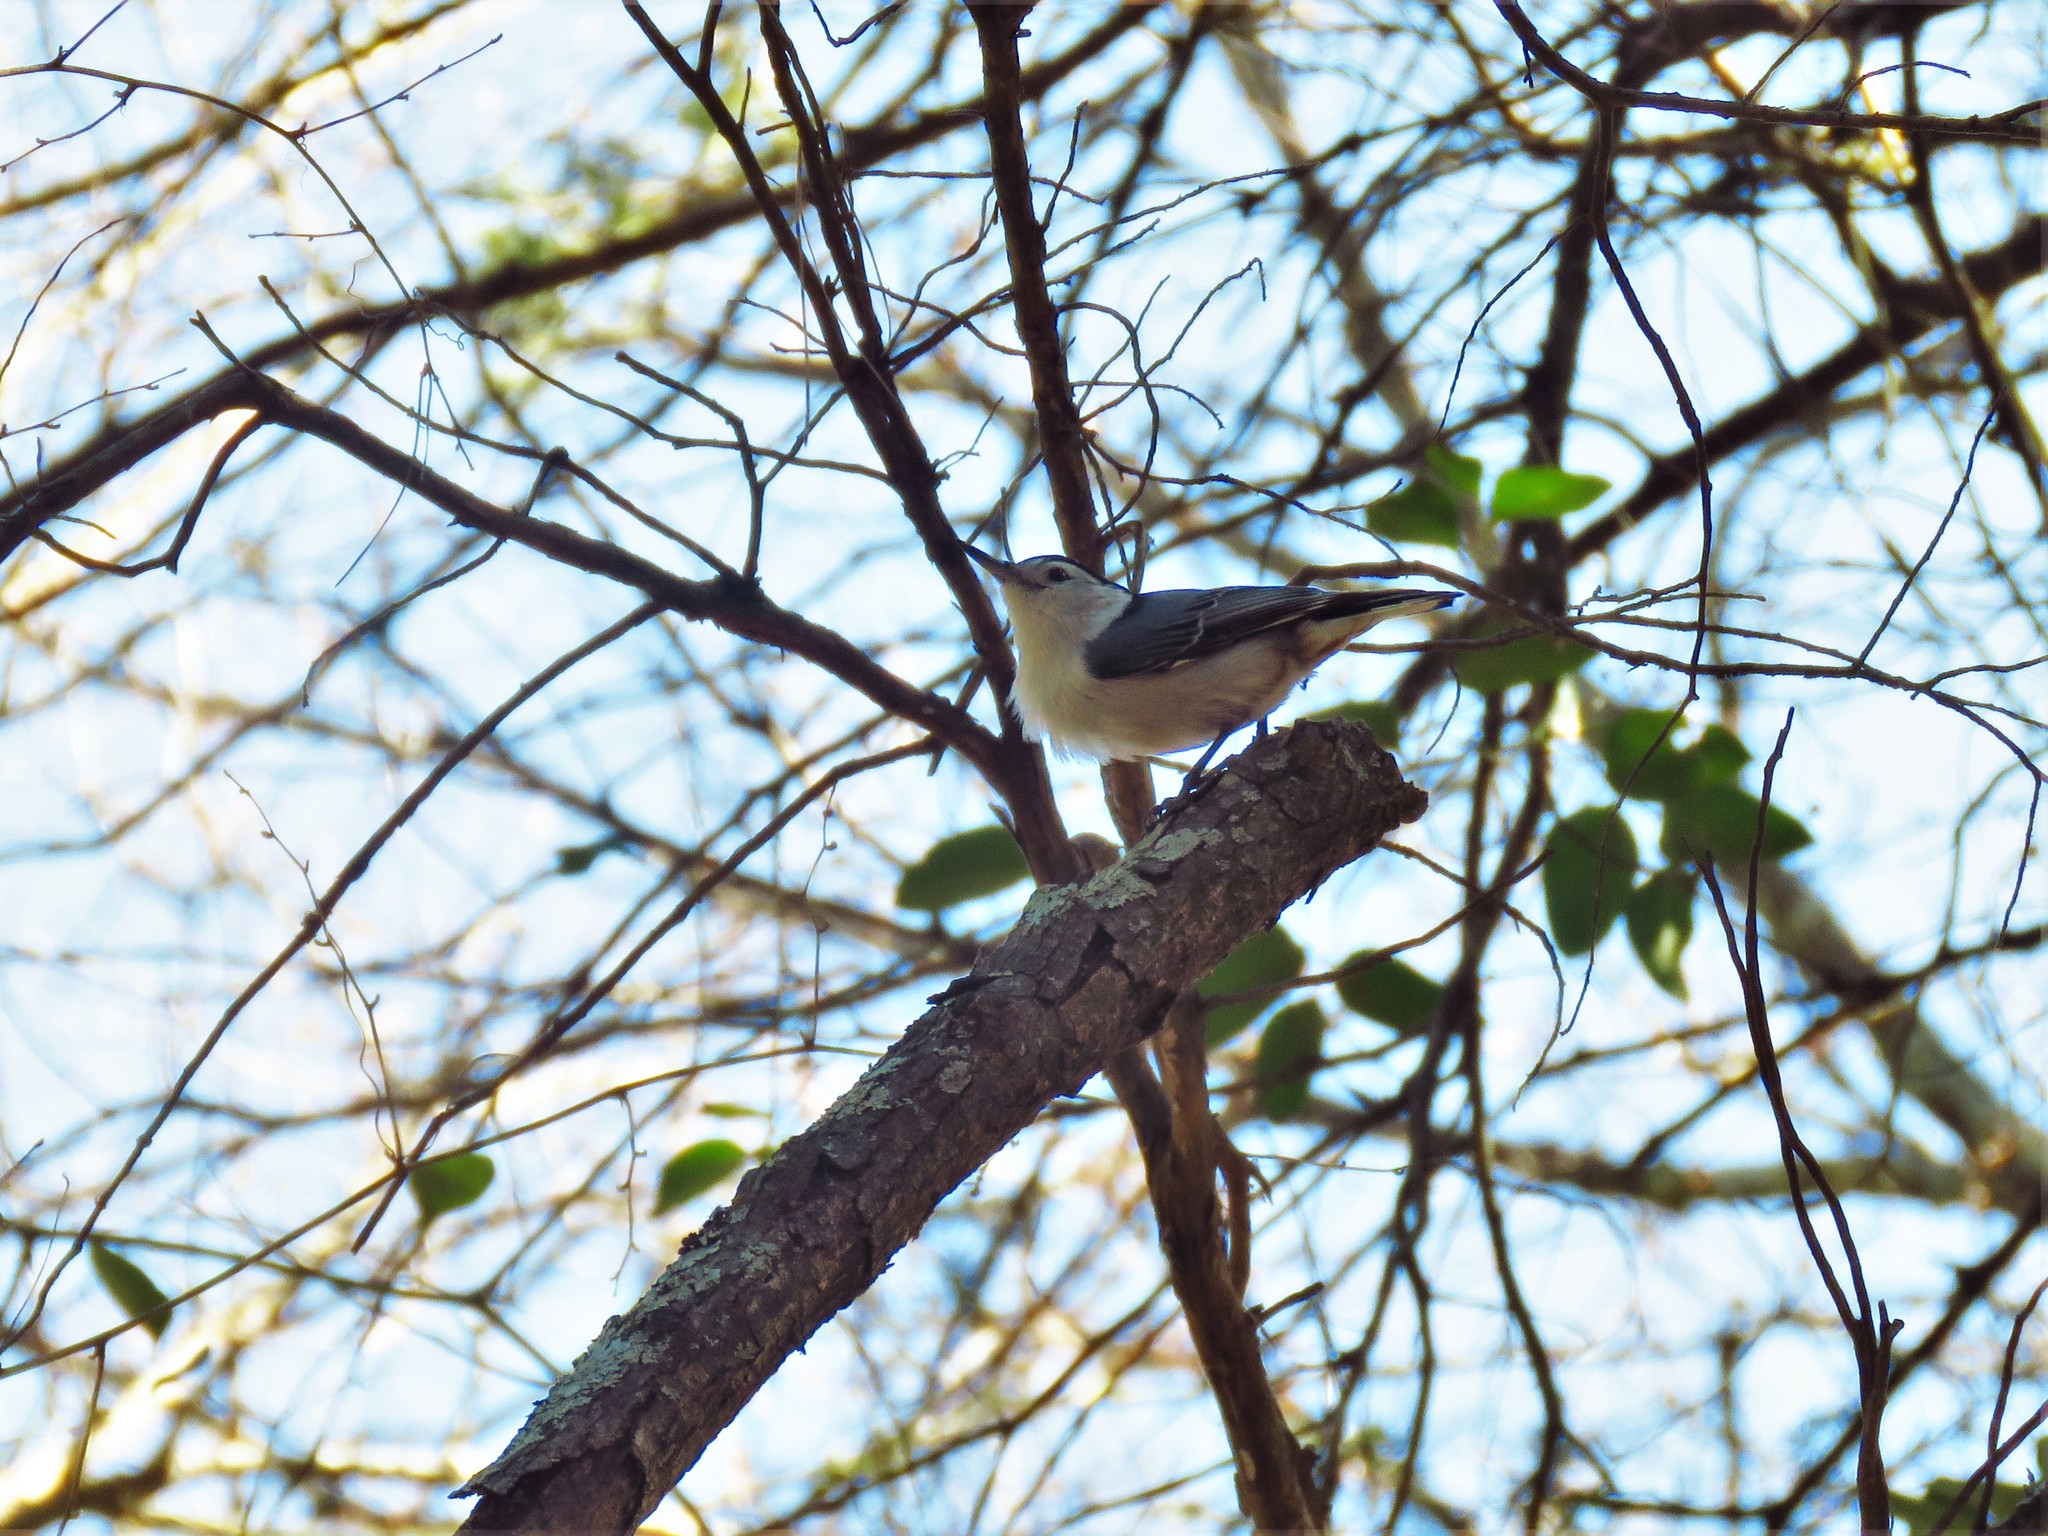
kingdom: Animalia
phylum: Chordata
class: Aves
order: Passeriformes
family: Sittidae
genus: Sitta
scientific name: Sitta carolinensis
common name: White-breasted nuthatch
